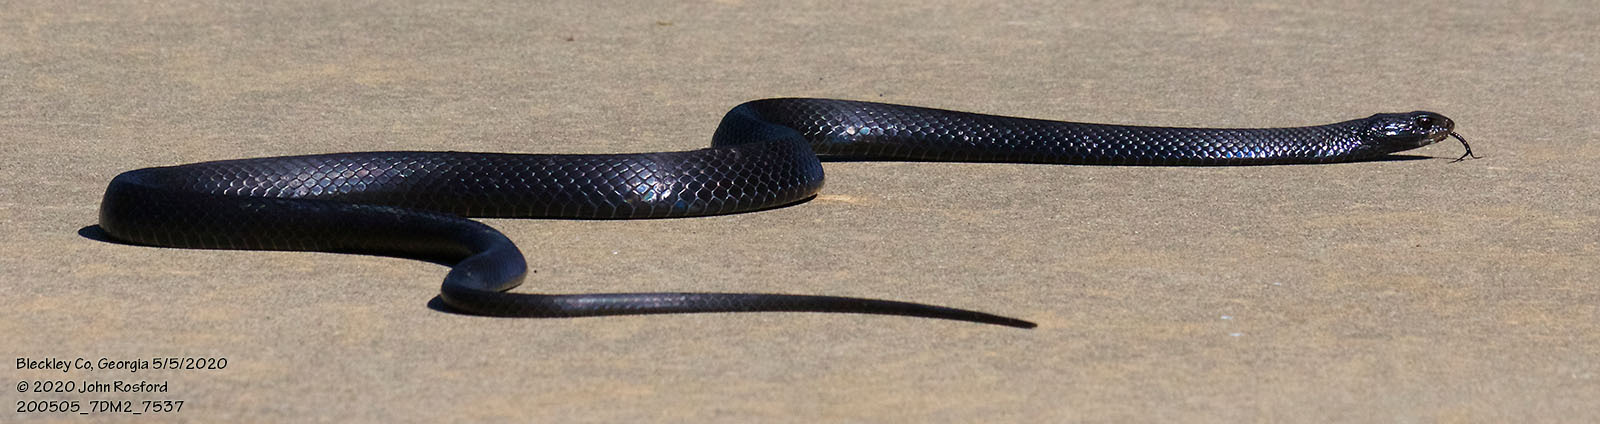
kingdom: Animalia
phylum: Chordata
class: Squamata
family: Colubridae
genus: Coluber
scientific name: Coluber constrictor
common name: Eastern racer
